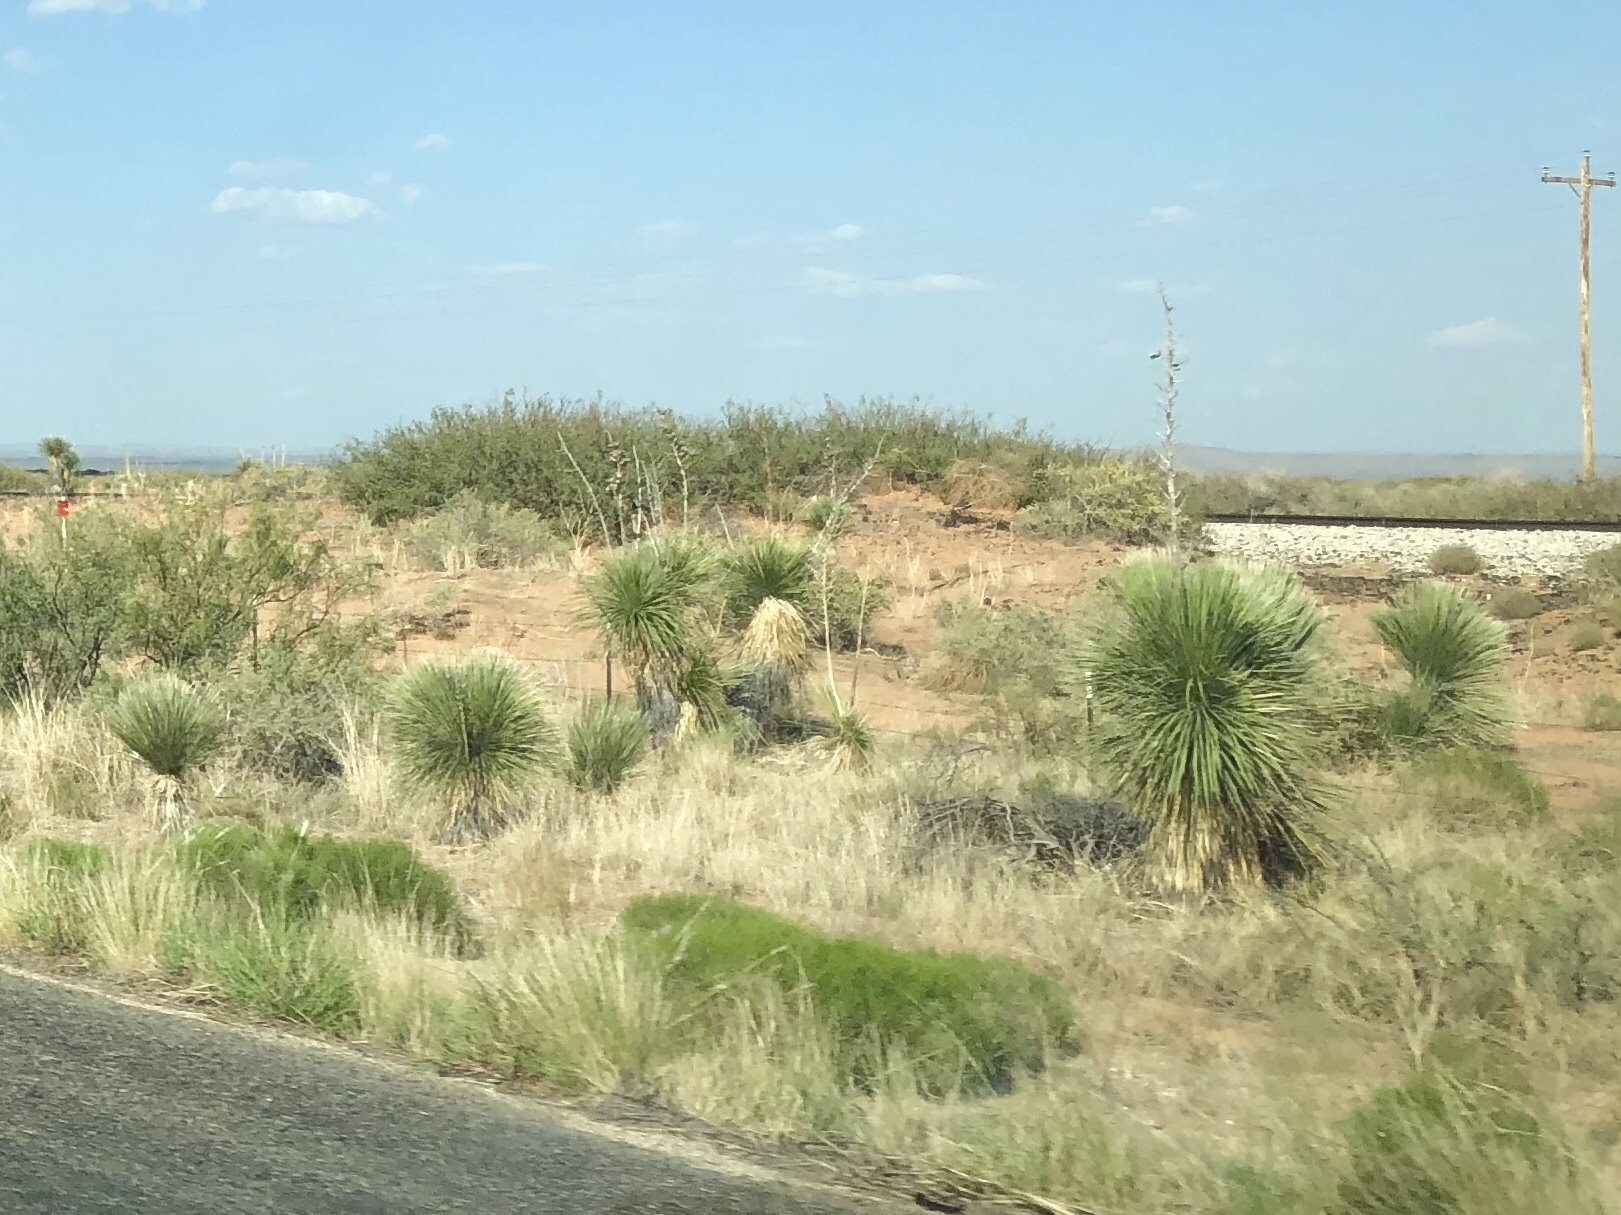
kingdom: Plantae
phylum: Tracheophyta
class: Liliopsida
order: Asparagales
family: Asparagaceae
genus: Yucca
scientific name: Yucca elata
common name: Palmella
